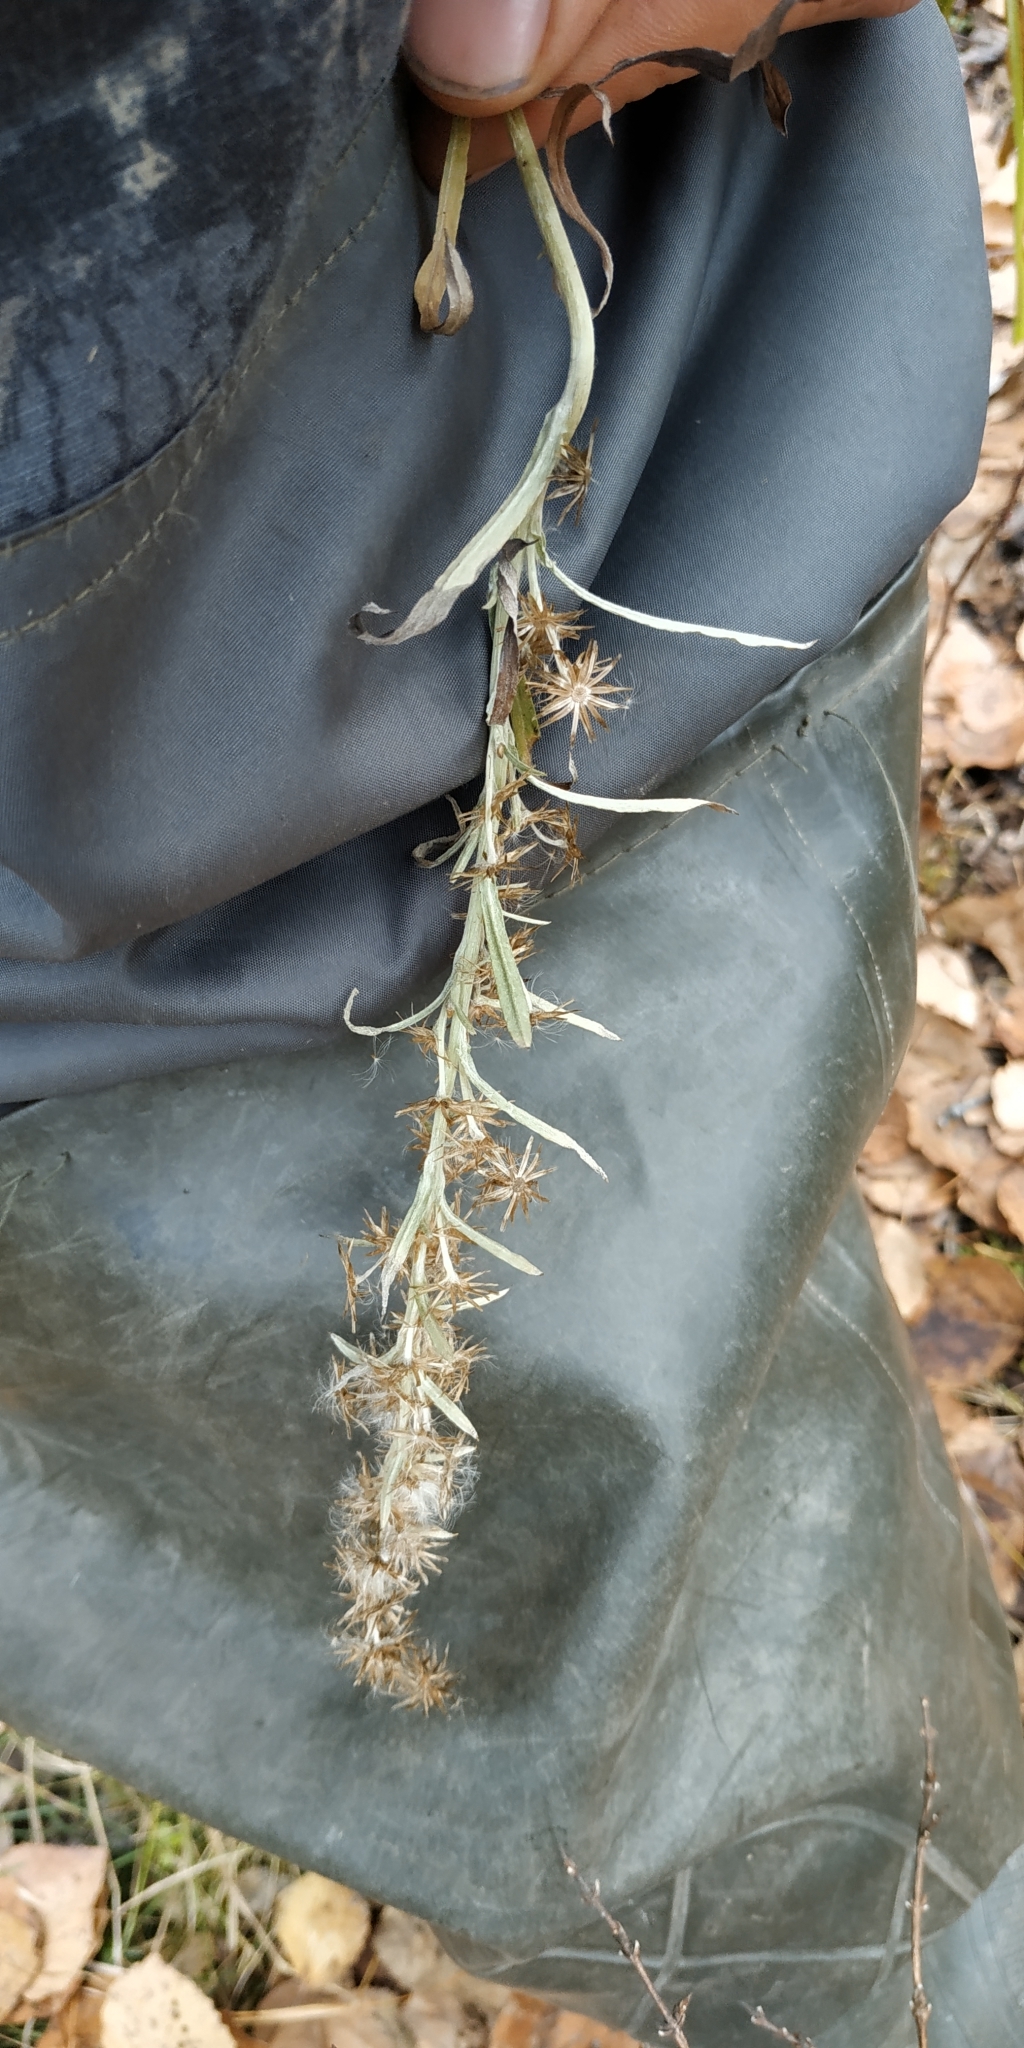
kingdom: Plantae
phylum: Tracheophyta
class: Magnoliopsida
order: Asterales
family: Asteraceae
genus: Omalotheca
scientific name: Omalotheca sylvatica
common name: Heath cudweed
